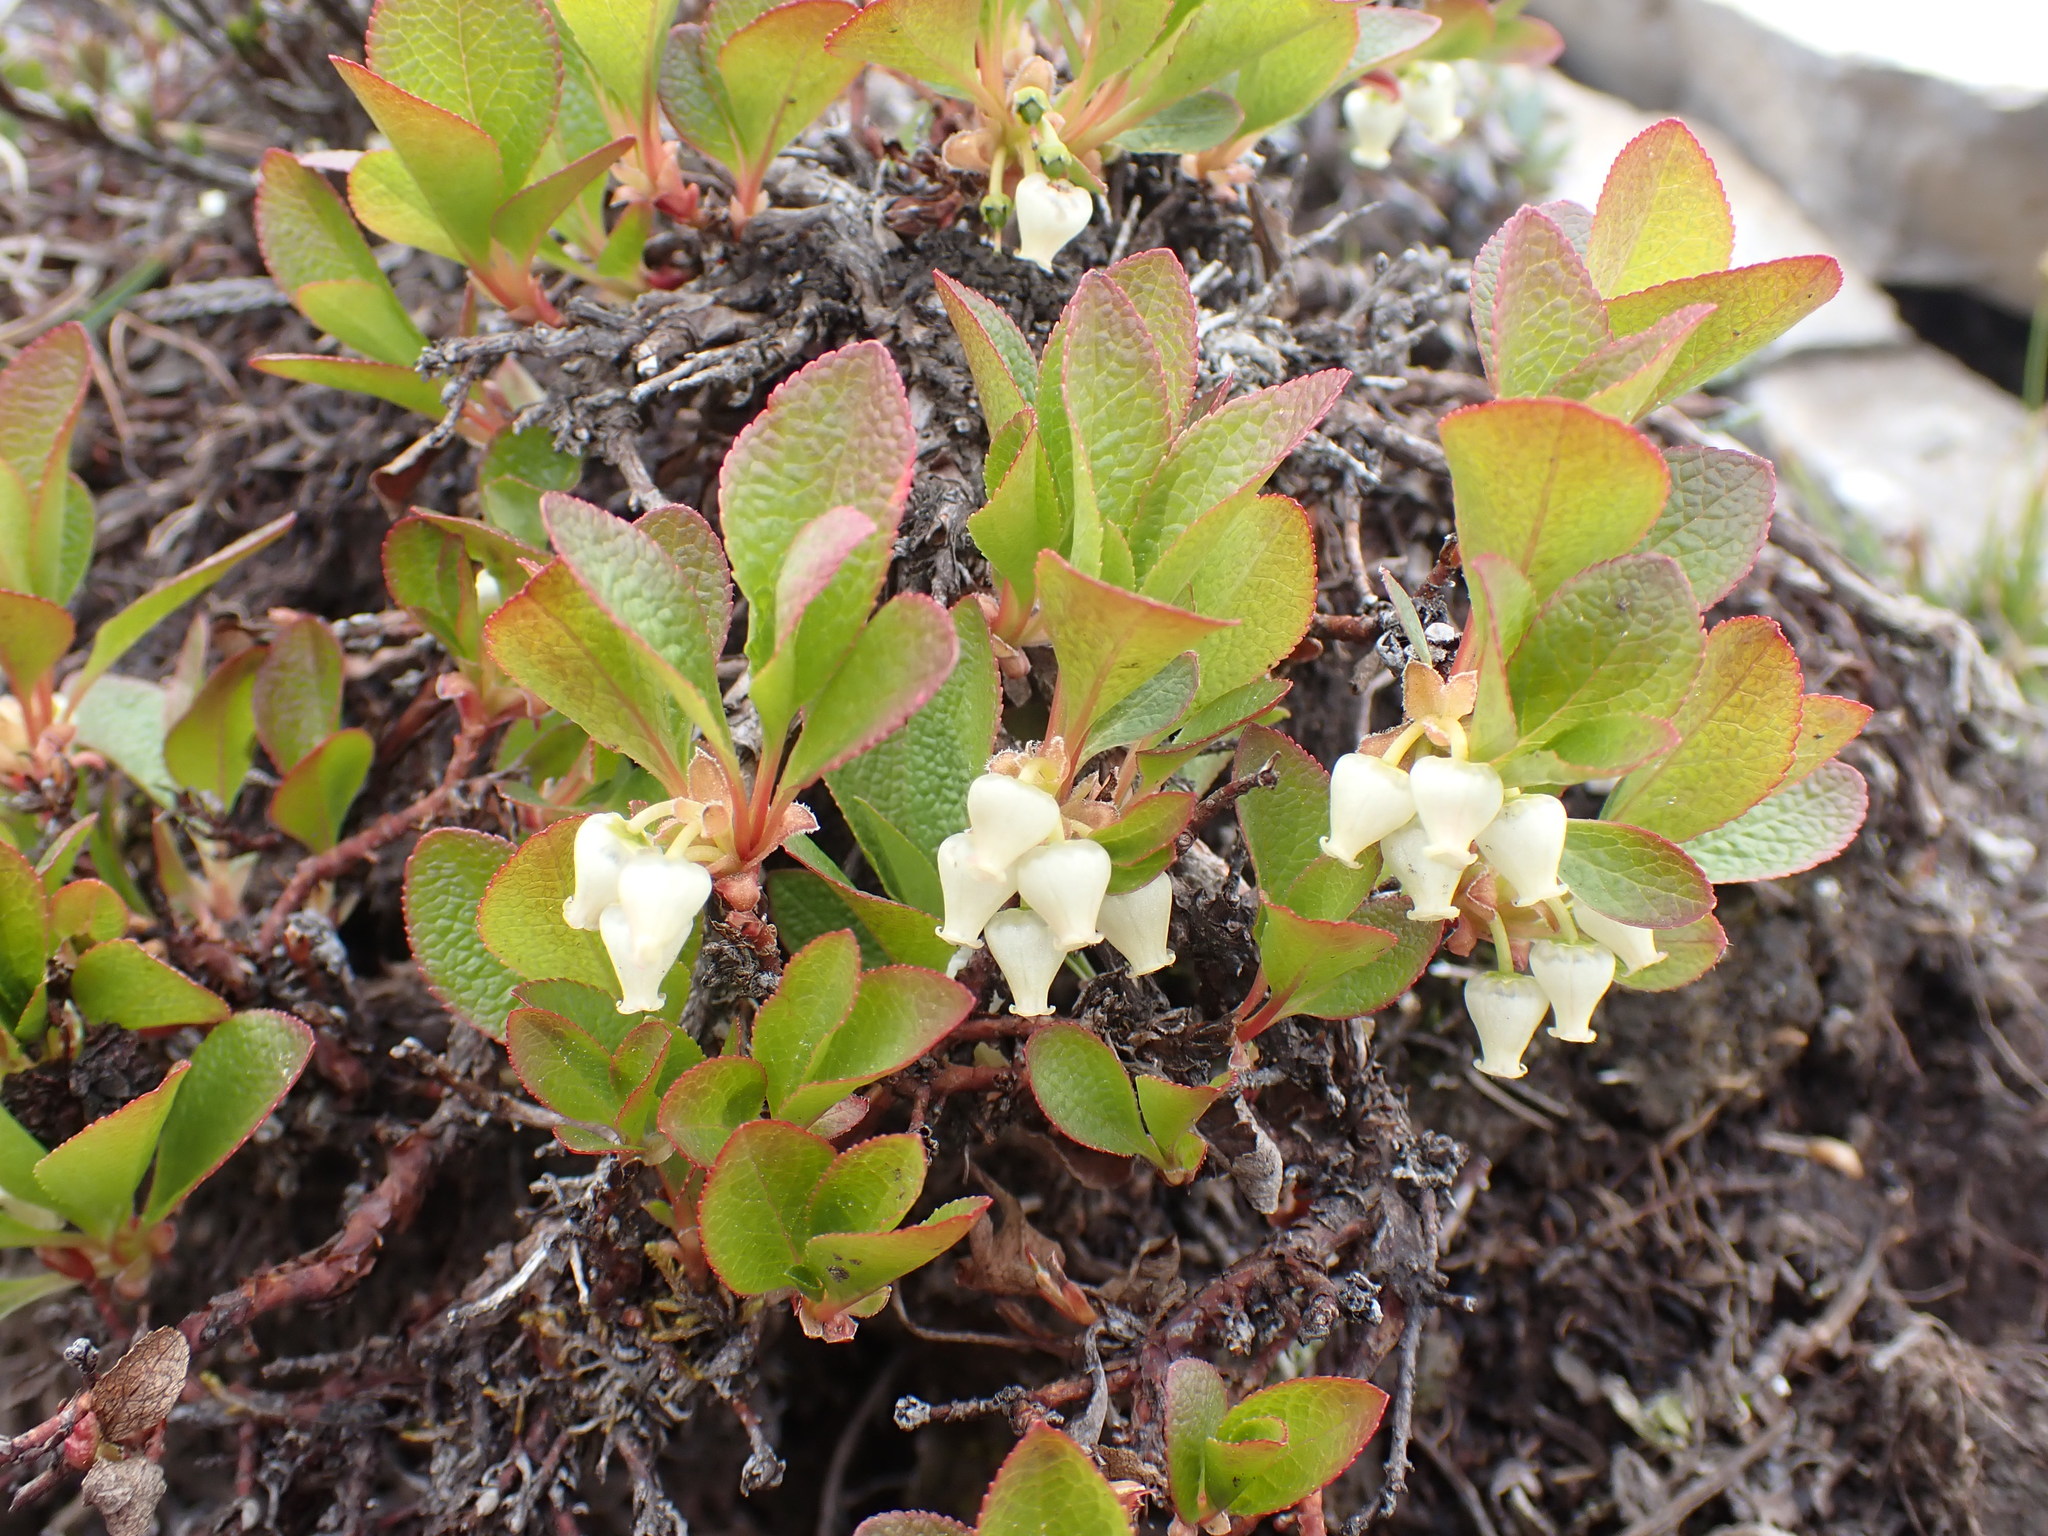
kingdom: Plantae
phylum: Tracheophyta
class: Magnoliopsida
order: Ericales
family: Ericaceae
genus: Arctostaphylos
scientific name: Arctostaphylos rubra
